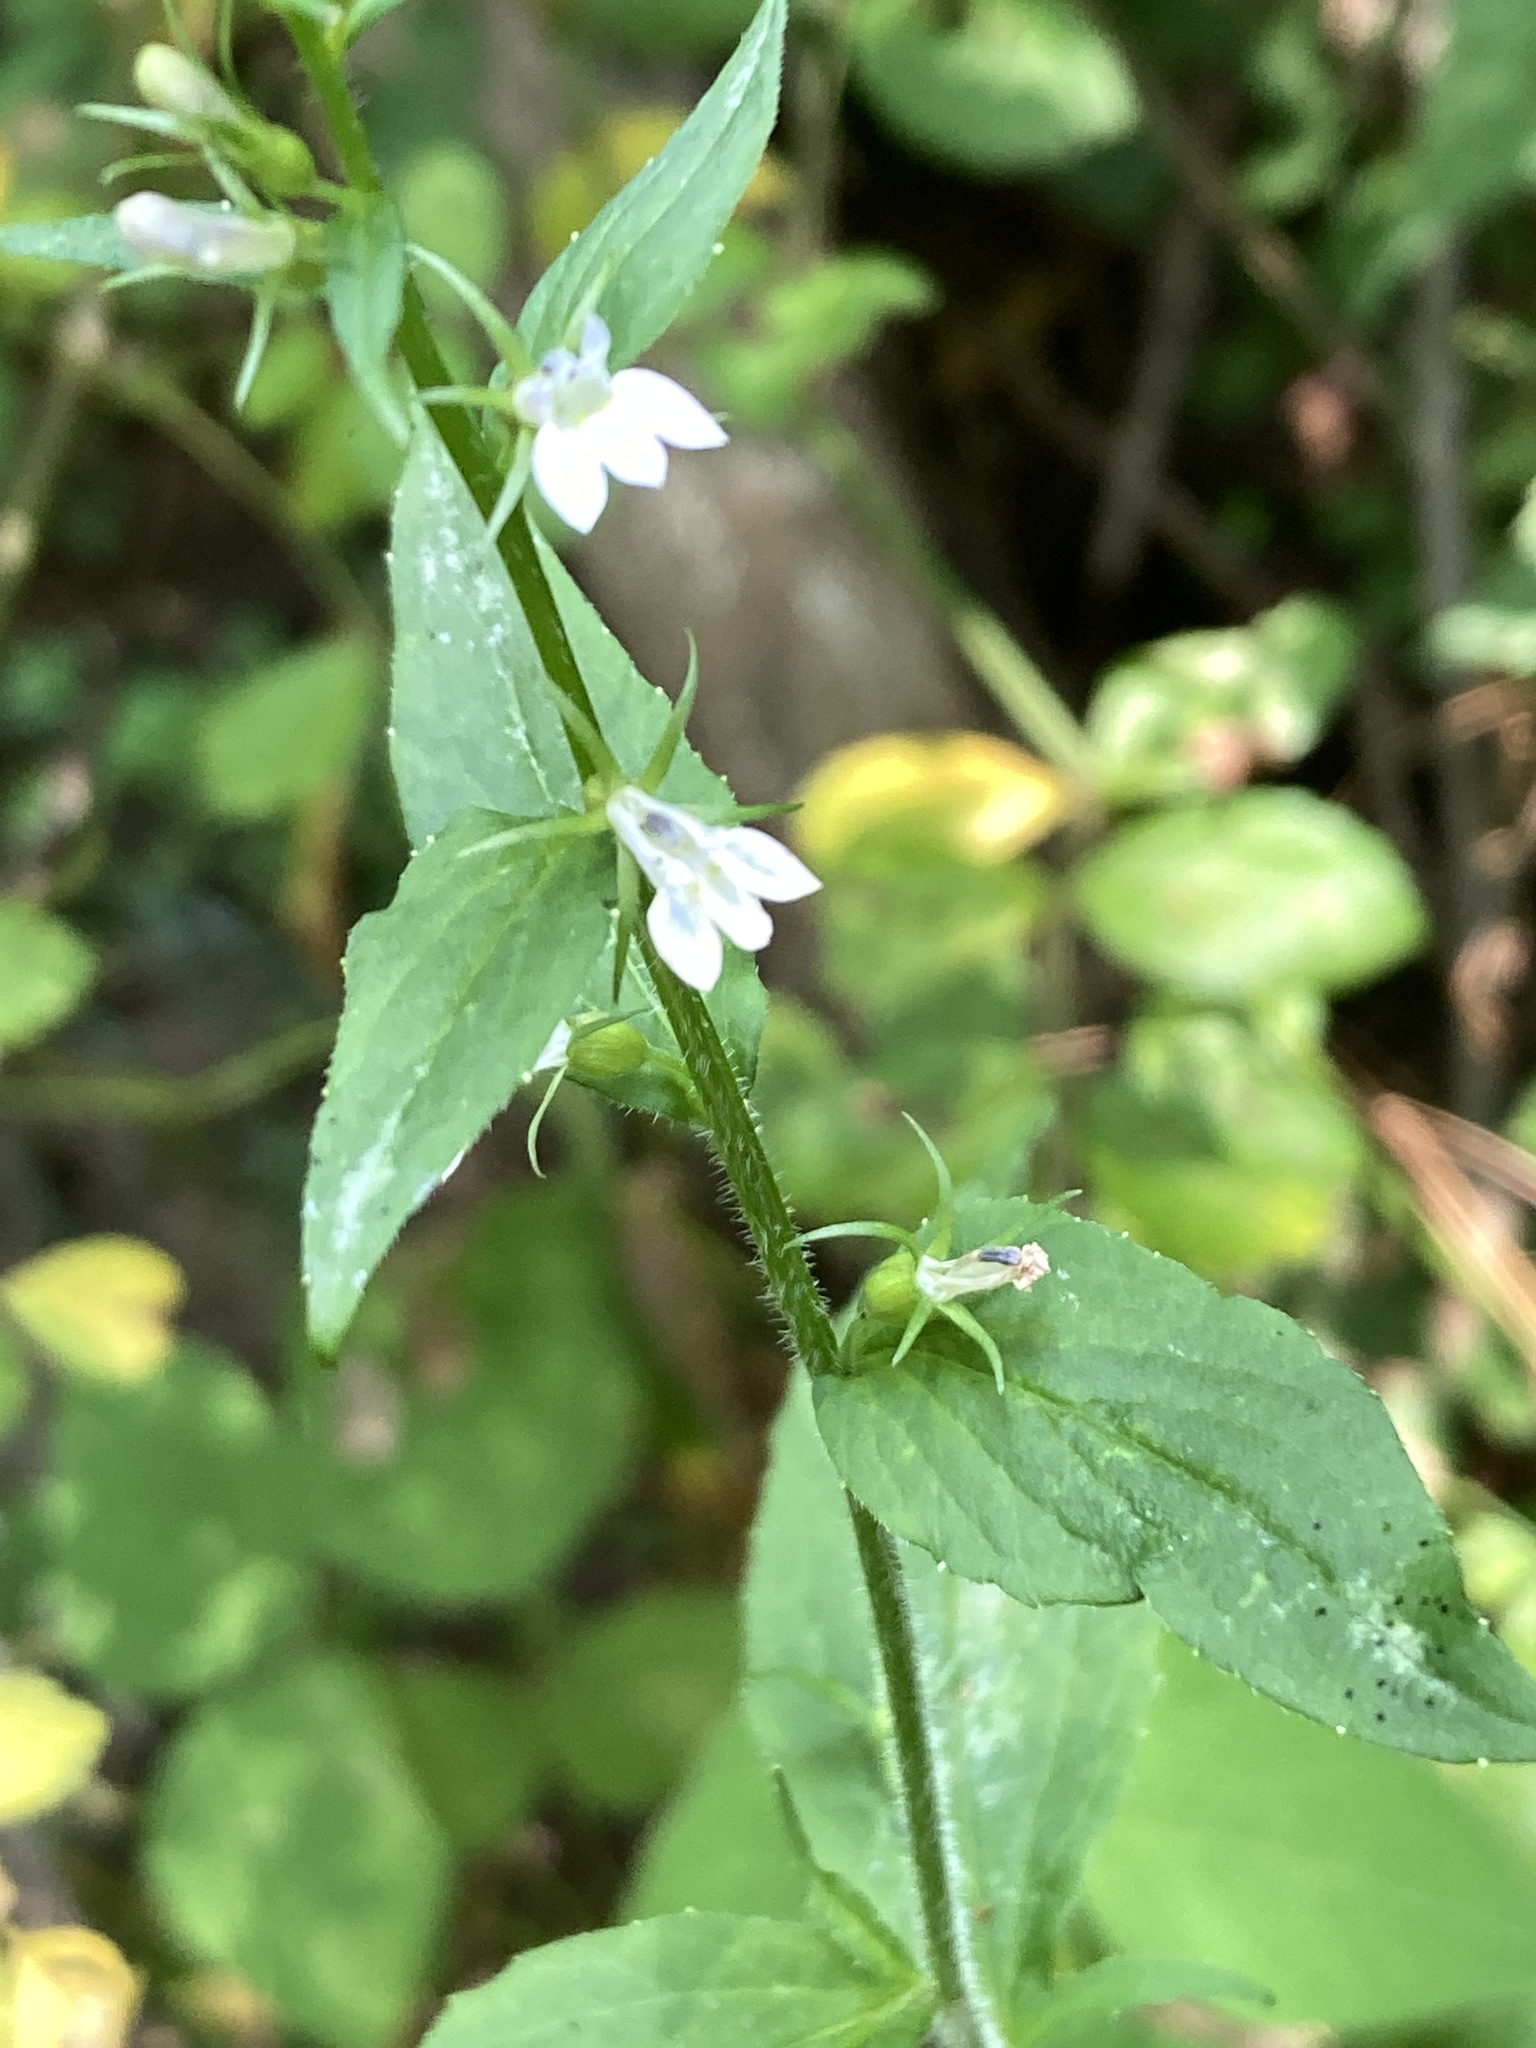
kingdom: Plantae
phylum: Tracheophyta
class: Magnoliopsida
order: Asterales
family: Campanulaceae
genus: Lobelia
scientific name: Lobelia inflata
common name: Indian tobacco
